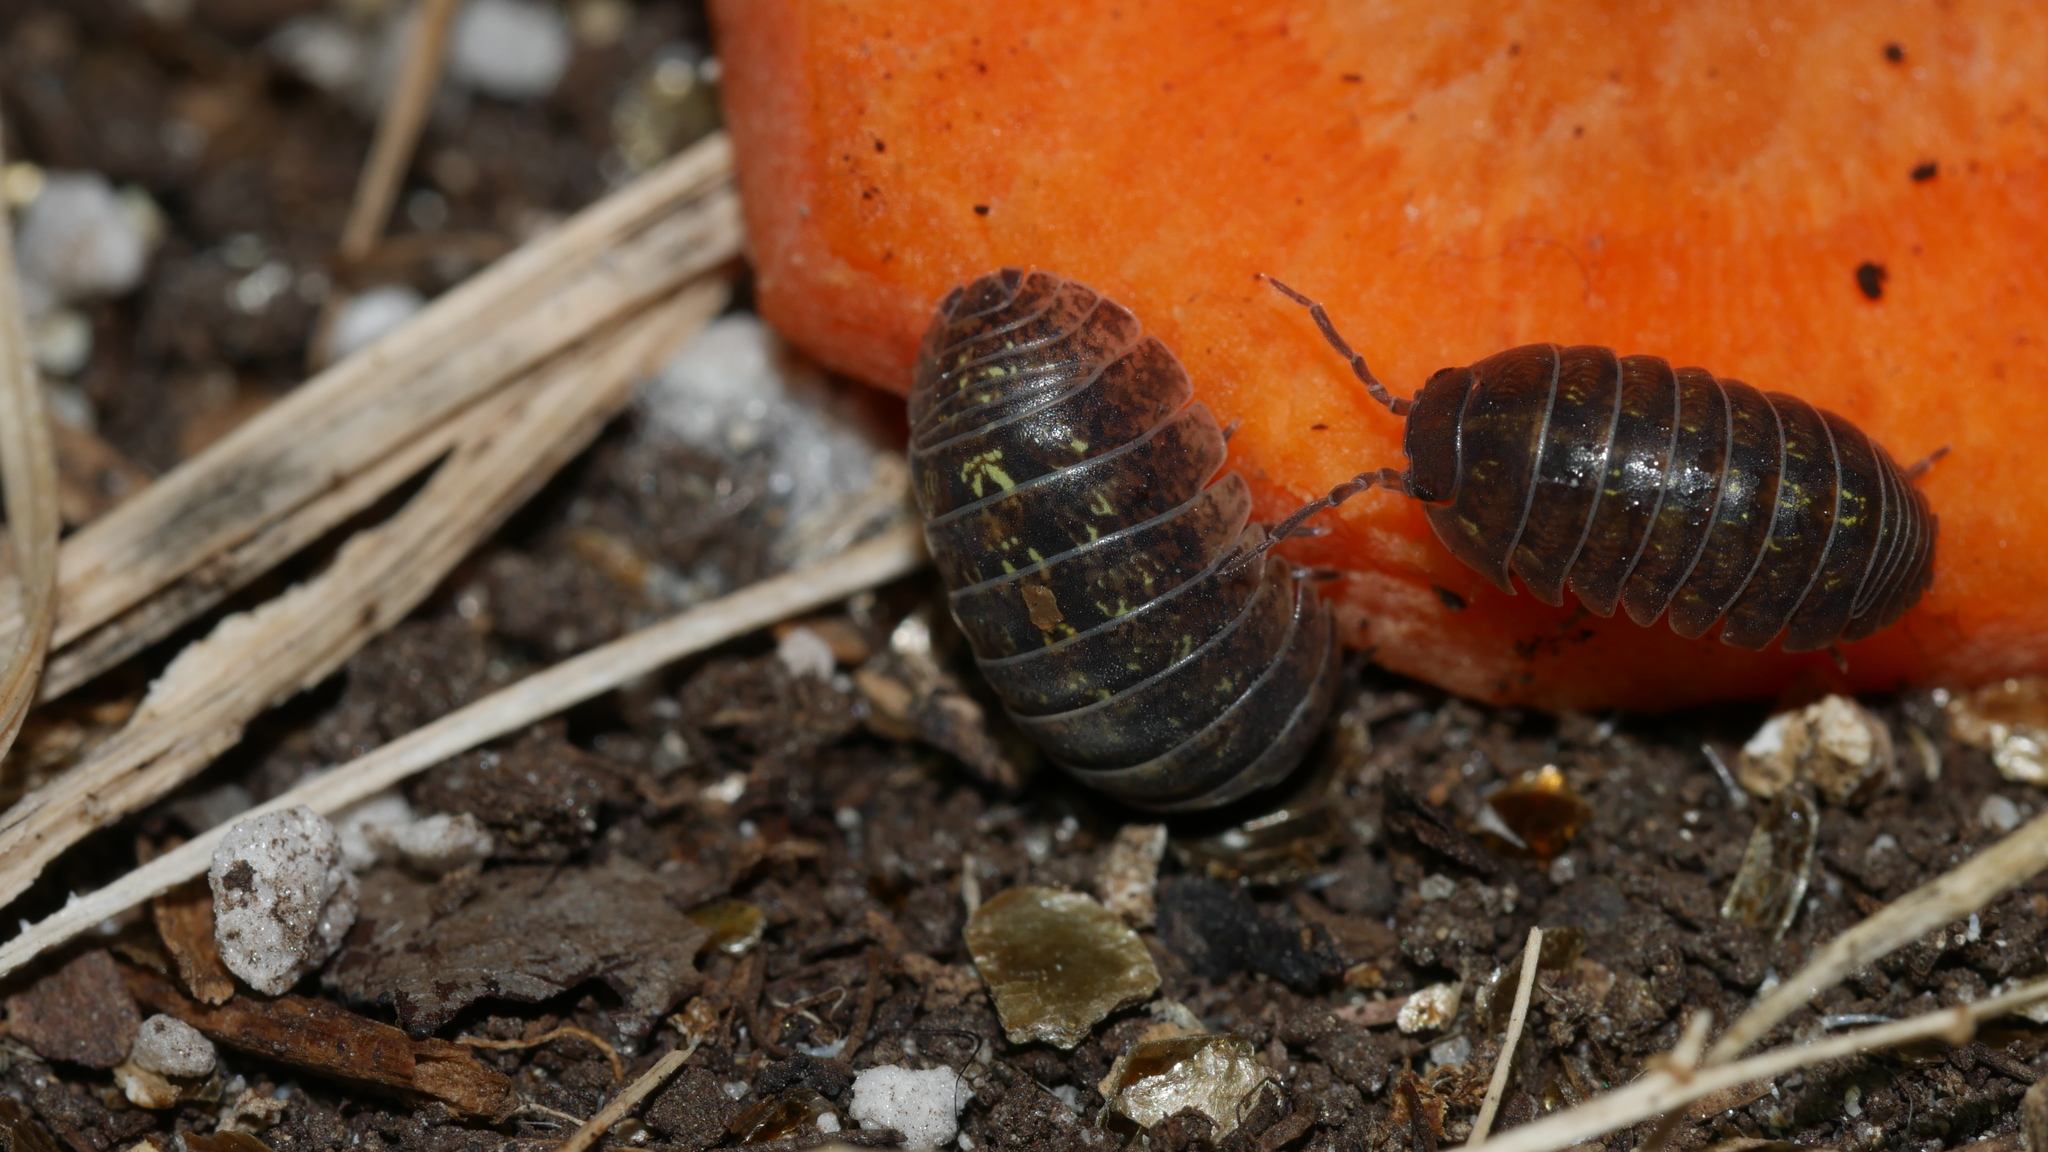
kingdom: Animalia
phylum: Arthropoda
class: Malacostraca
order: Isopoda
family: Armadillidiidae
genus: Armadillidium
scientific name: Armadillidium vulgare
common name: Common pill woodlouse
